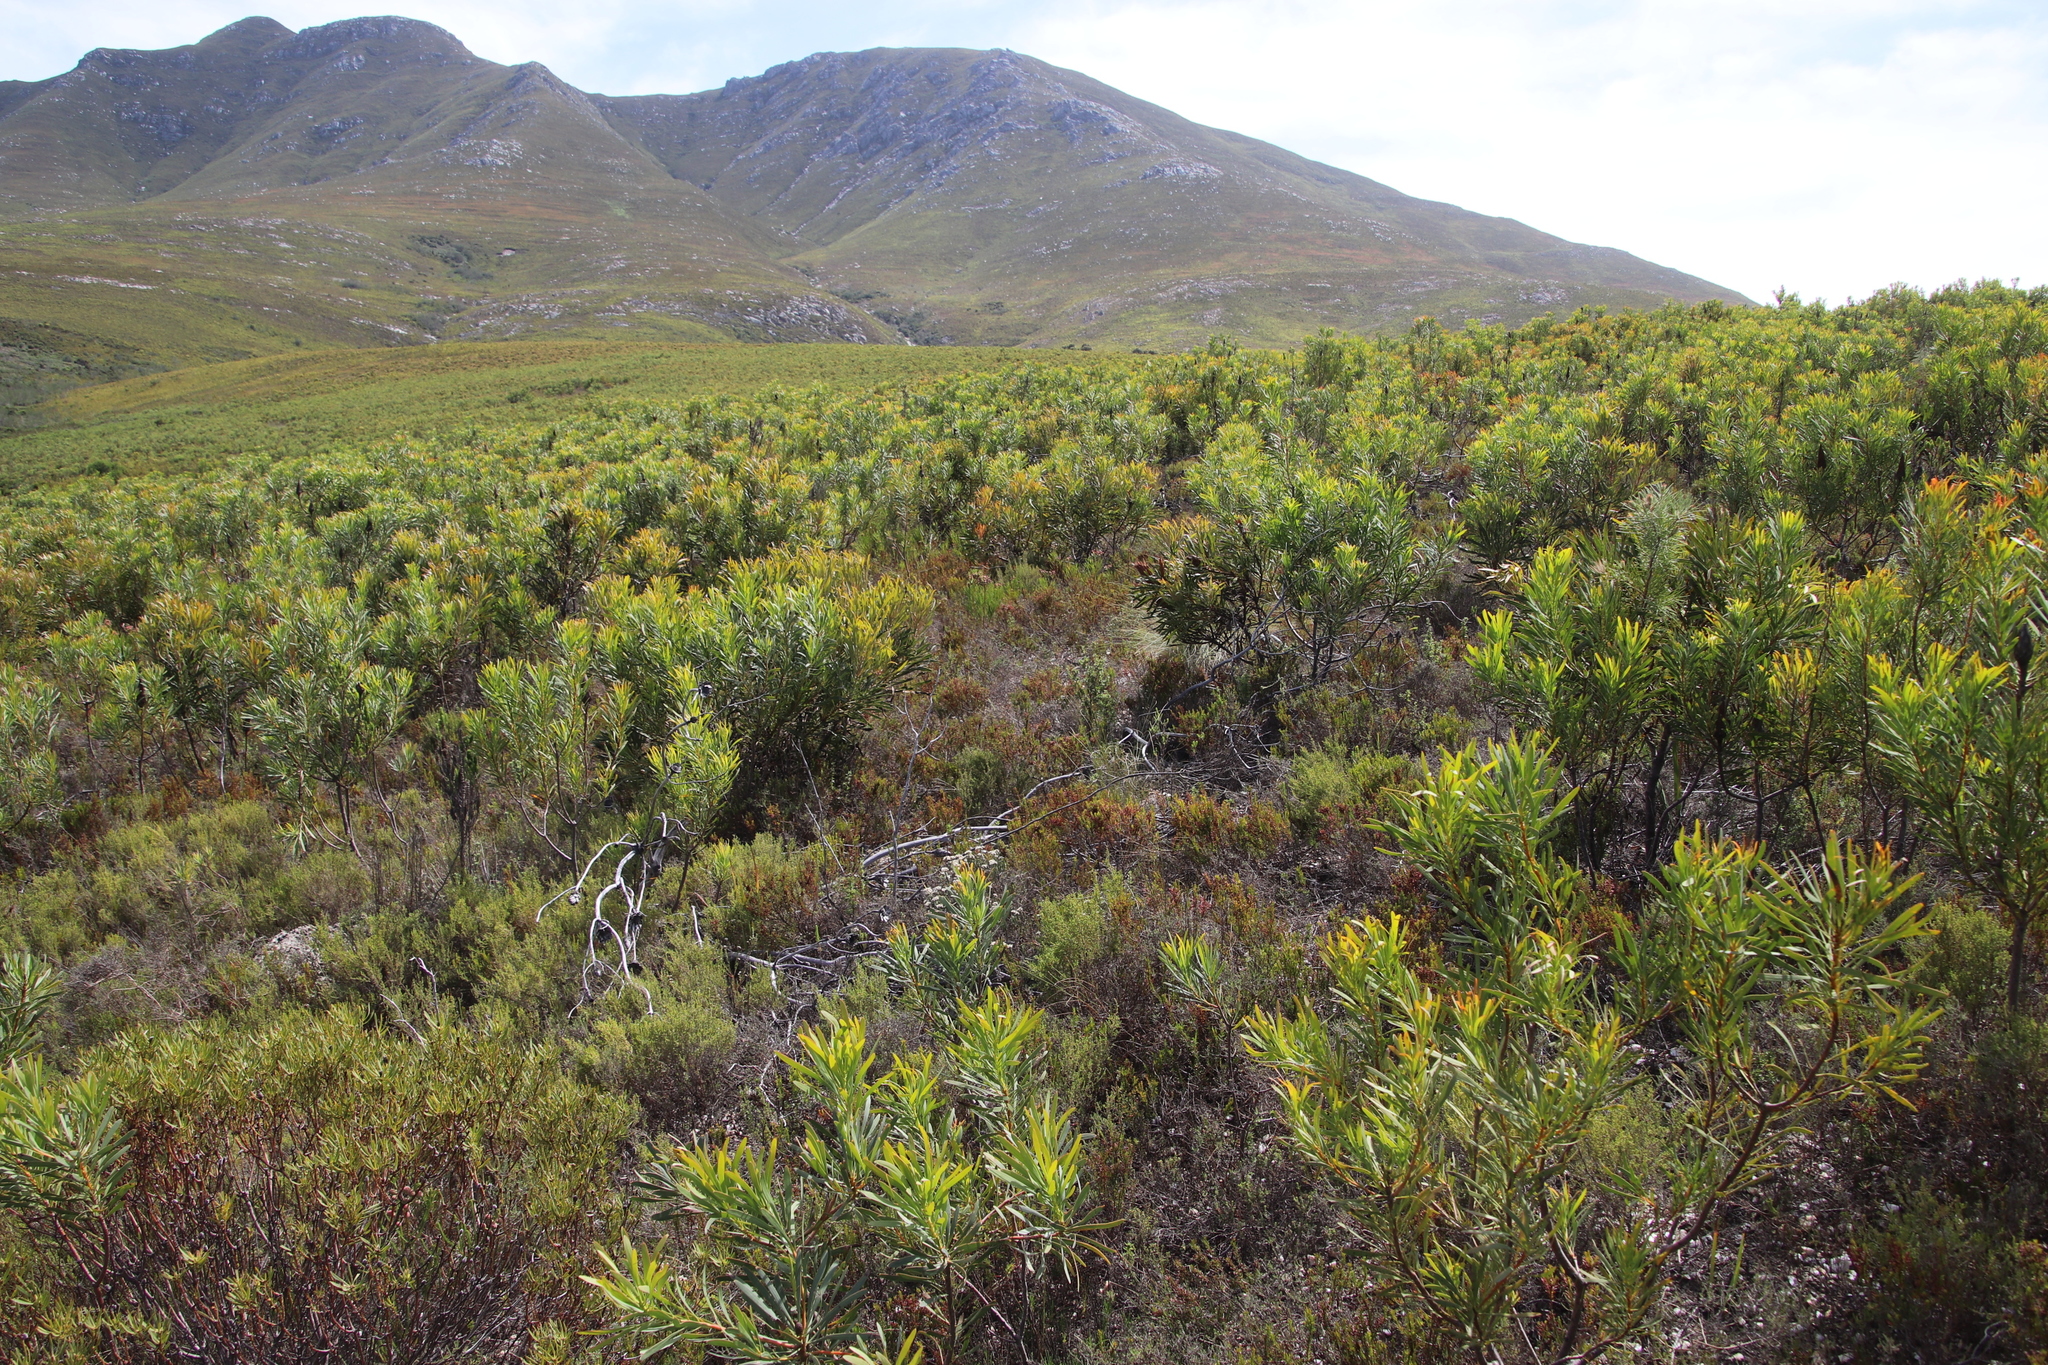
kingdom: Plantae
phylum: Tracheophyta
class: Magnoliopsida
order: Ericales
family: Ericaceae
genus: Erica
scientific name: Erica rubiginosa
